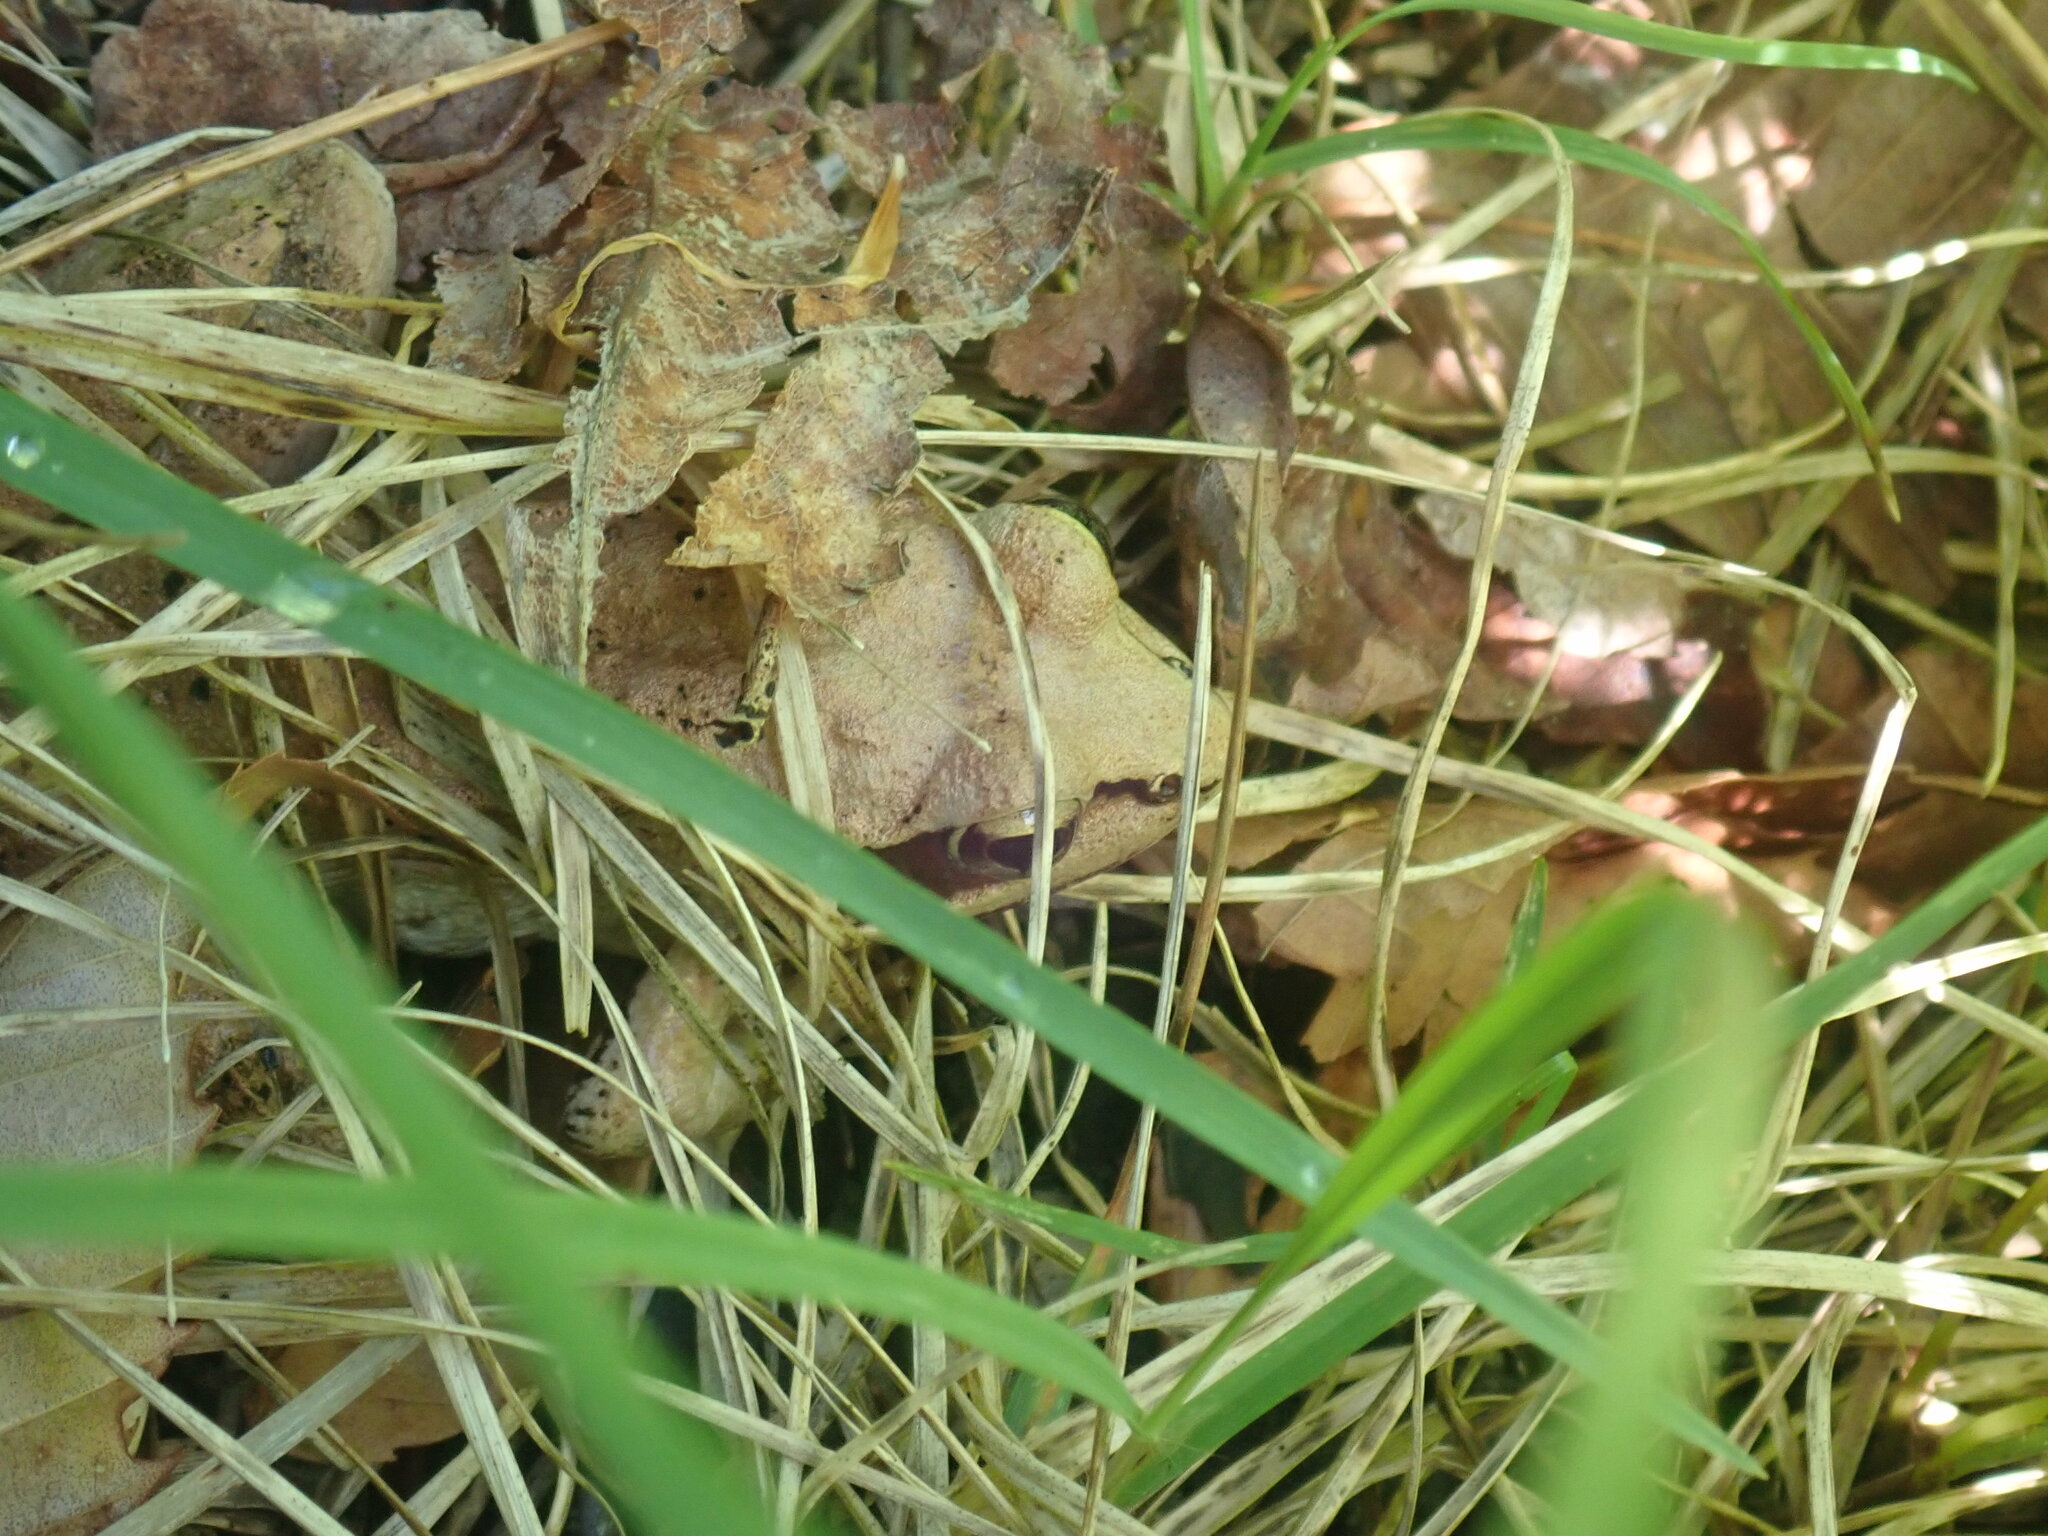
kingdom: Animalia
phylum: Chordata
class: Amphibia
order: Anura
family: Ranidae
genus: Lithobates
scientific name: Lithobates sylvaticus
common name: Wood frog
